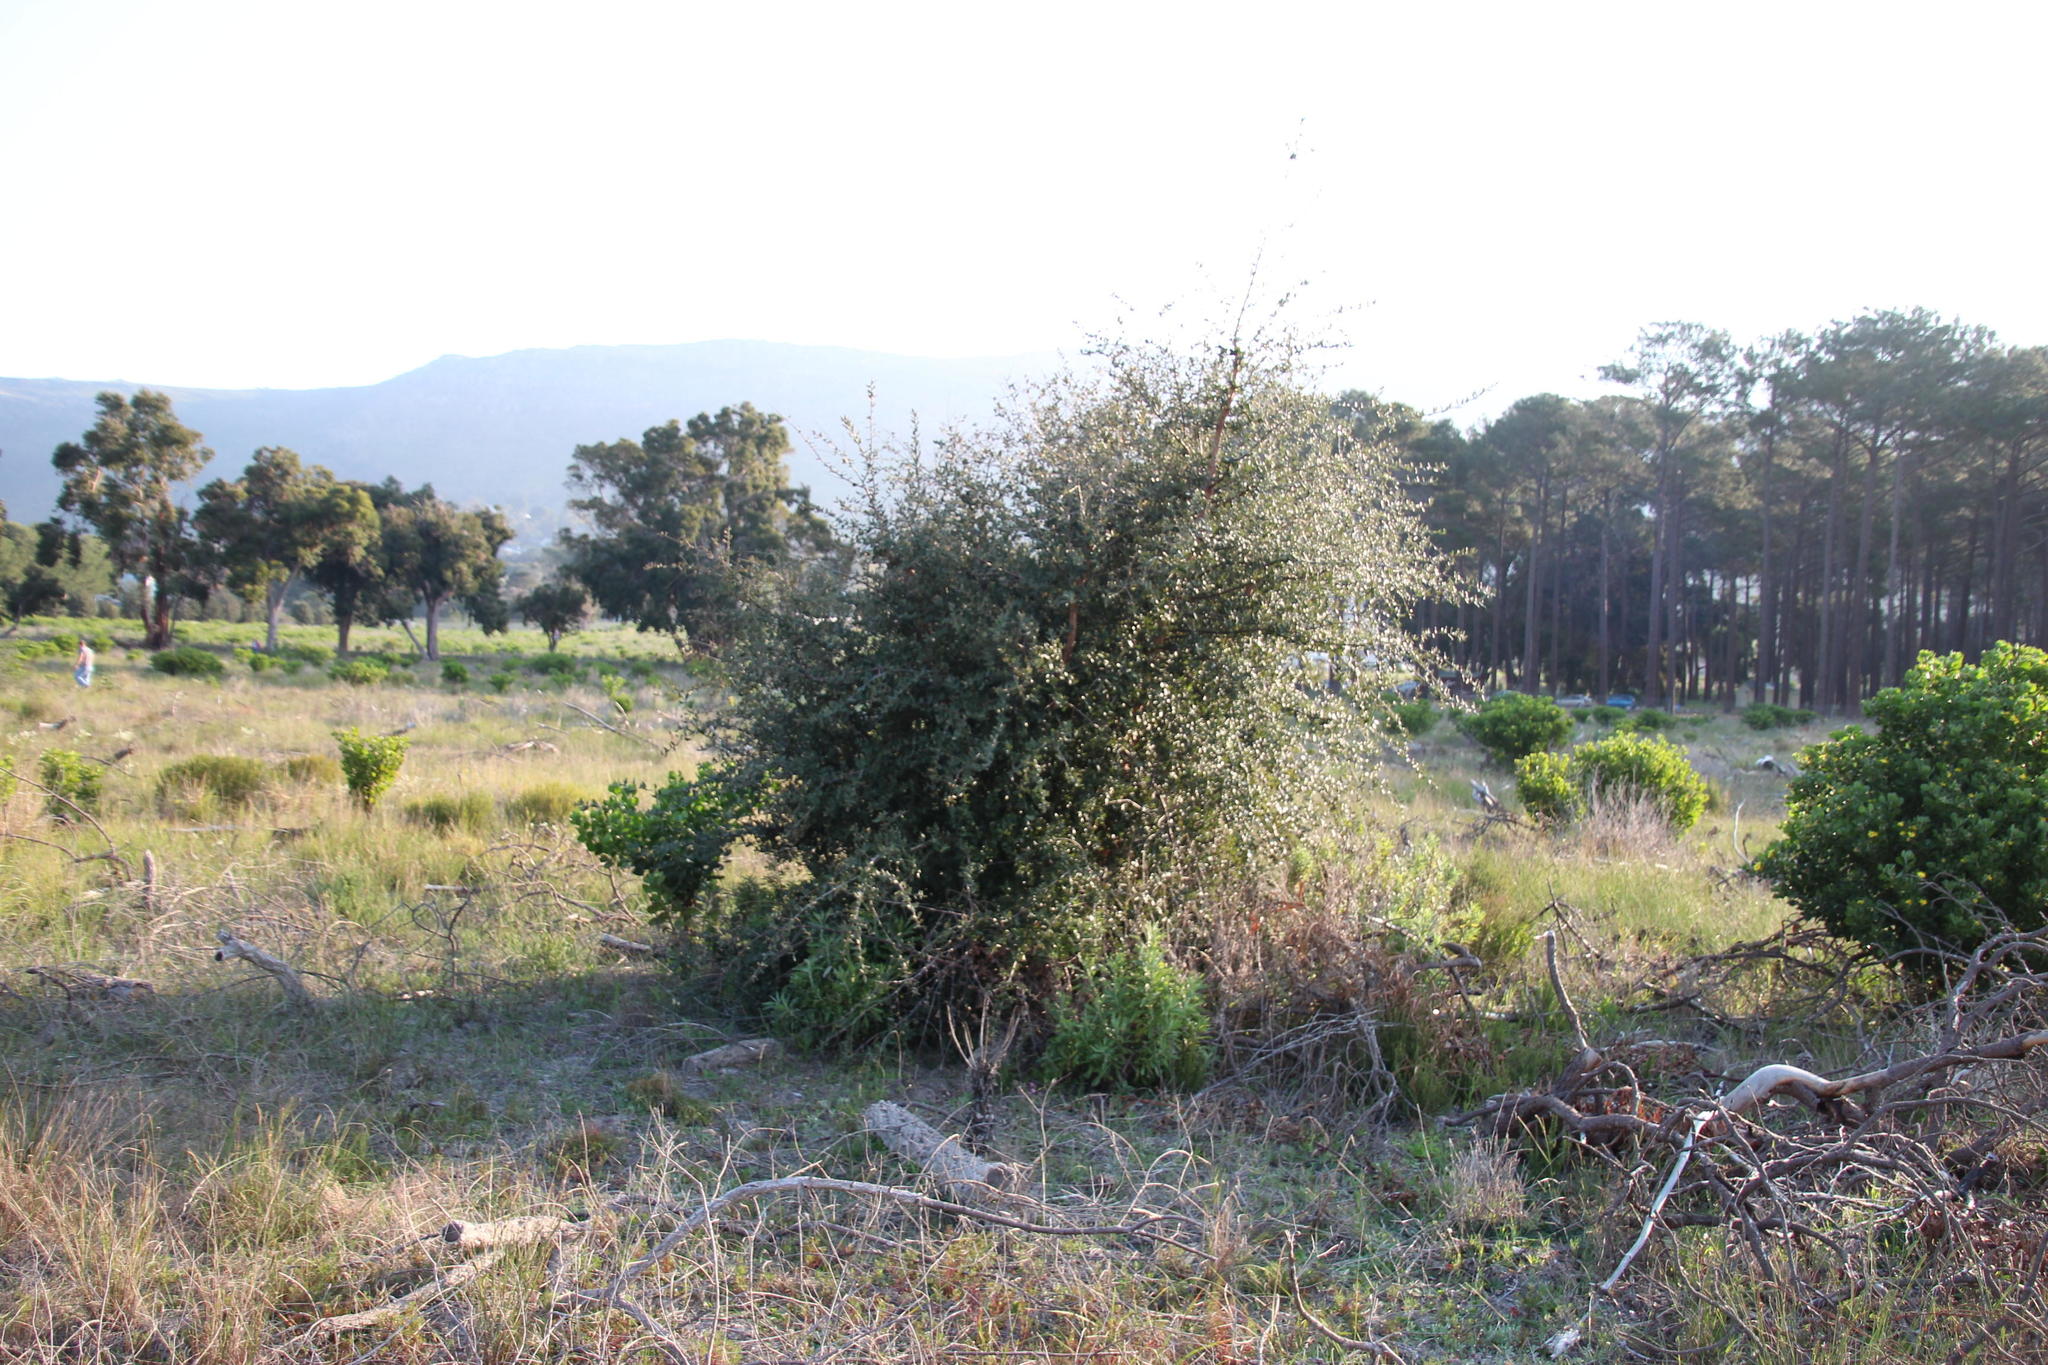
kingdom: Plantae
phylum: Tracheophyta
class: Magnoliopsida
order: Fagales
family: Fagaceae
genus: Quercus
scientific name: Quercus suber
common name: Cork oak
